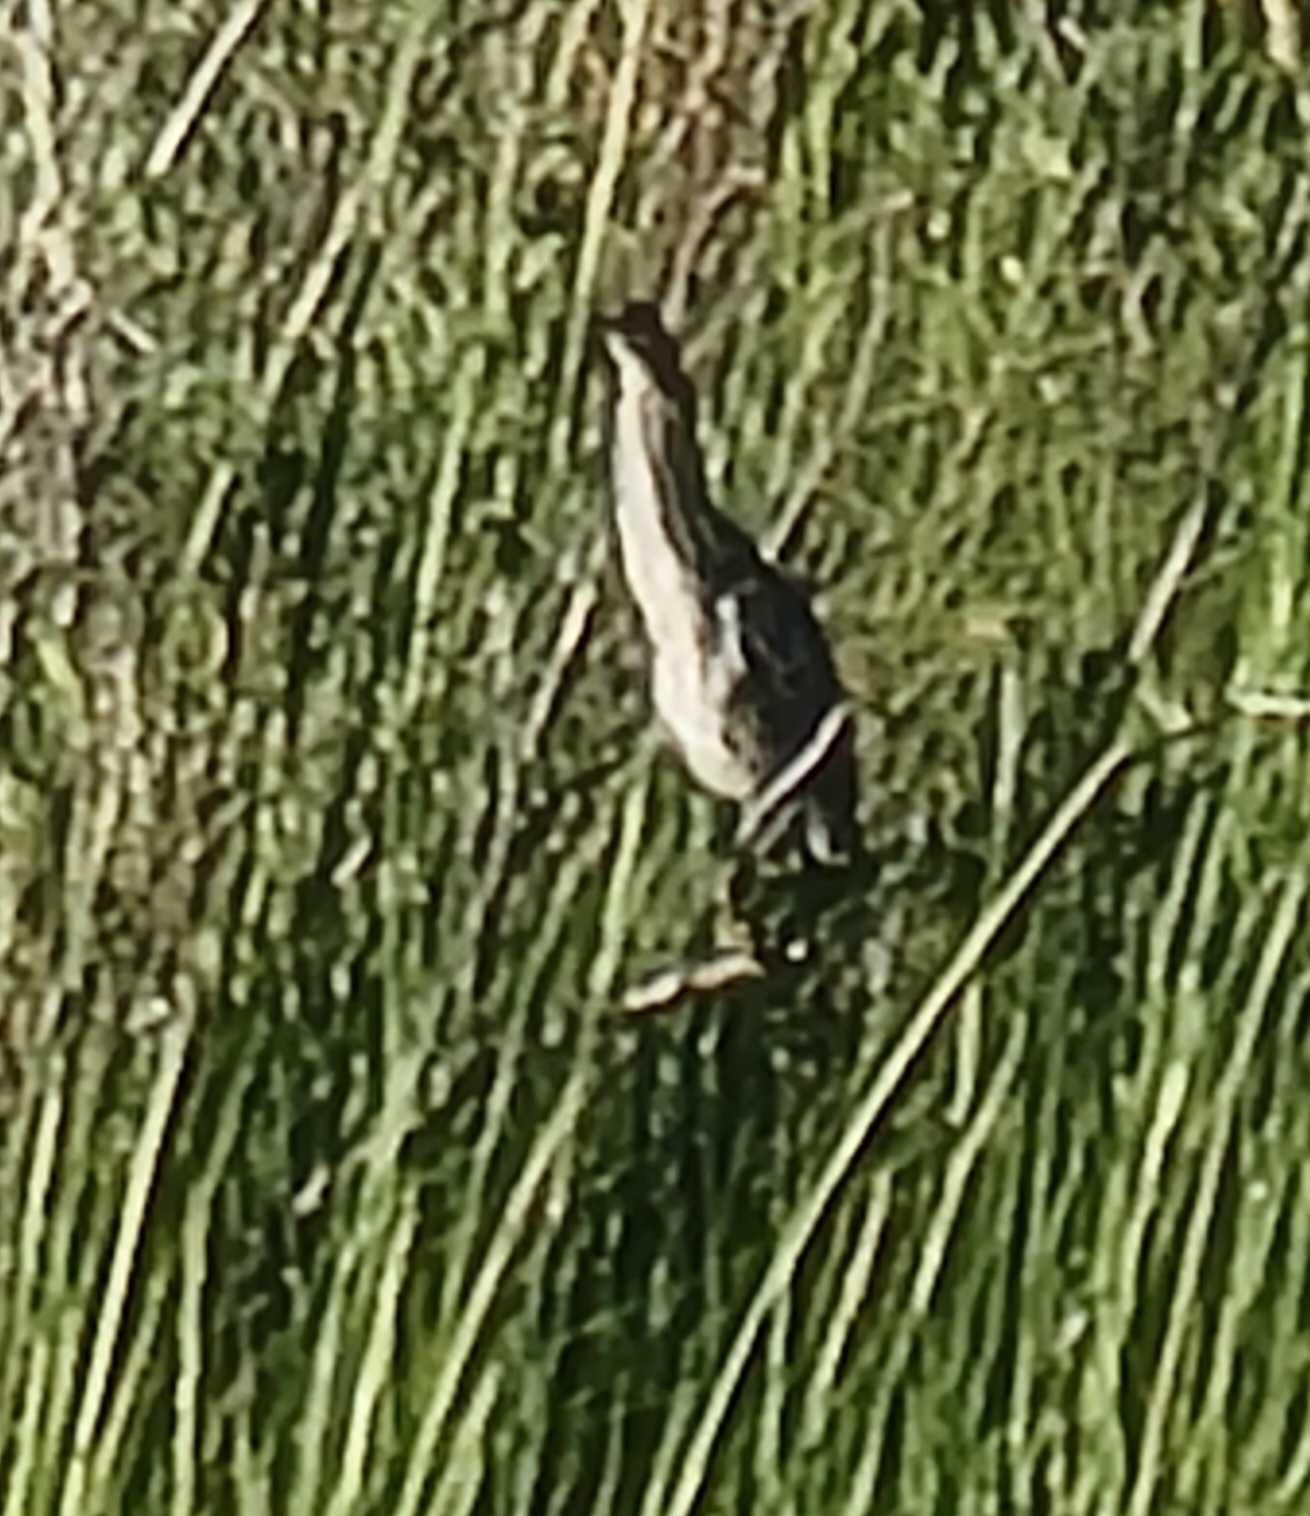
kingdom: Animalia
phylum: Chordata
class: Aves
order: Pelecaniformes
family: Ardeidae
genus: Botaurus
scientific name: Botaurus lentiginosus
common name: American bittern
